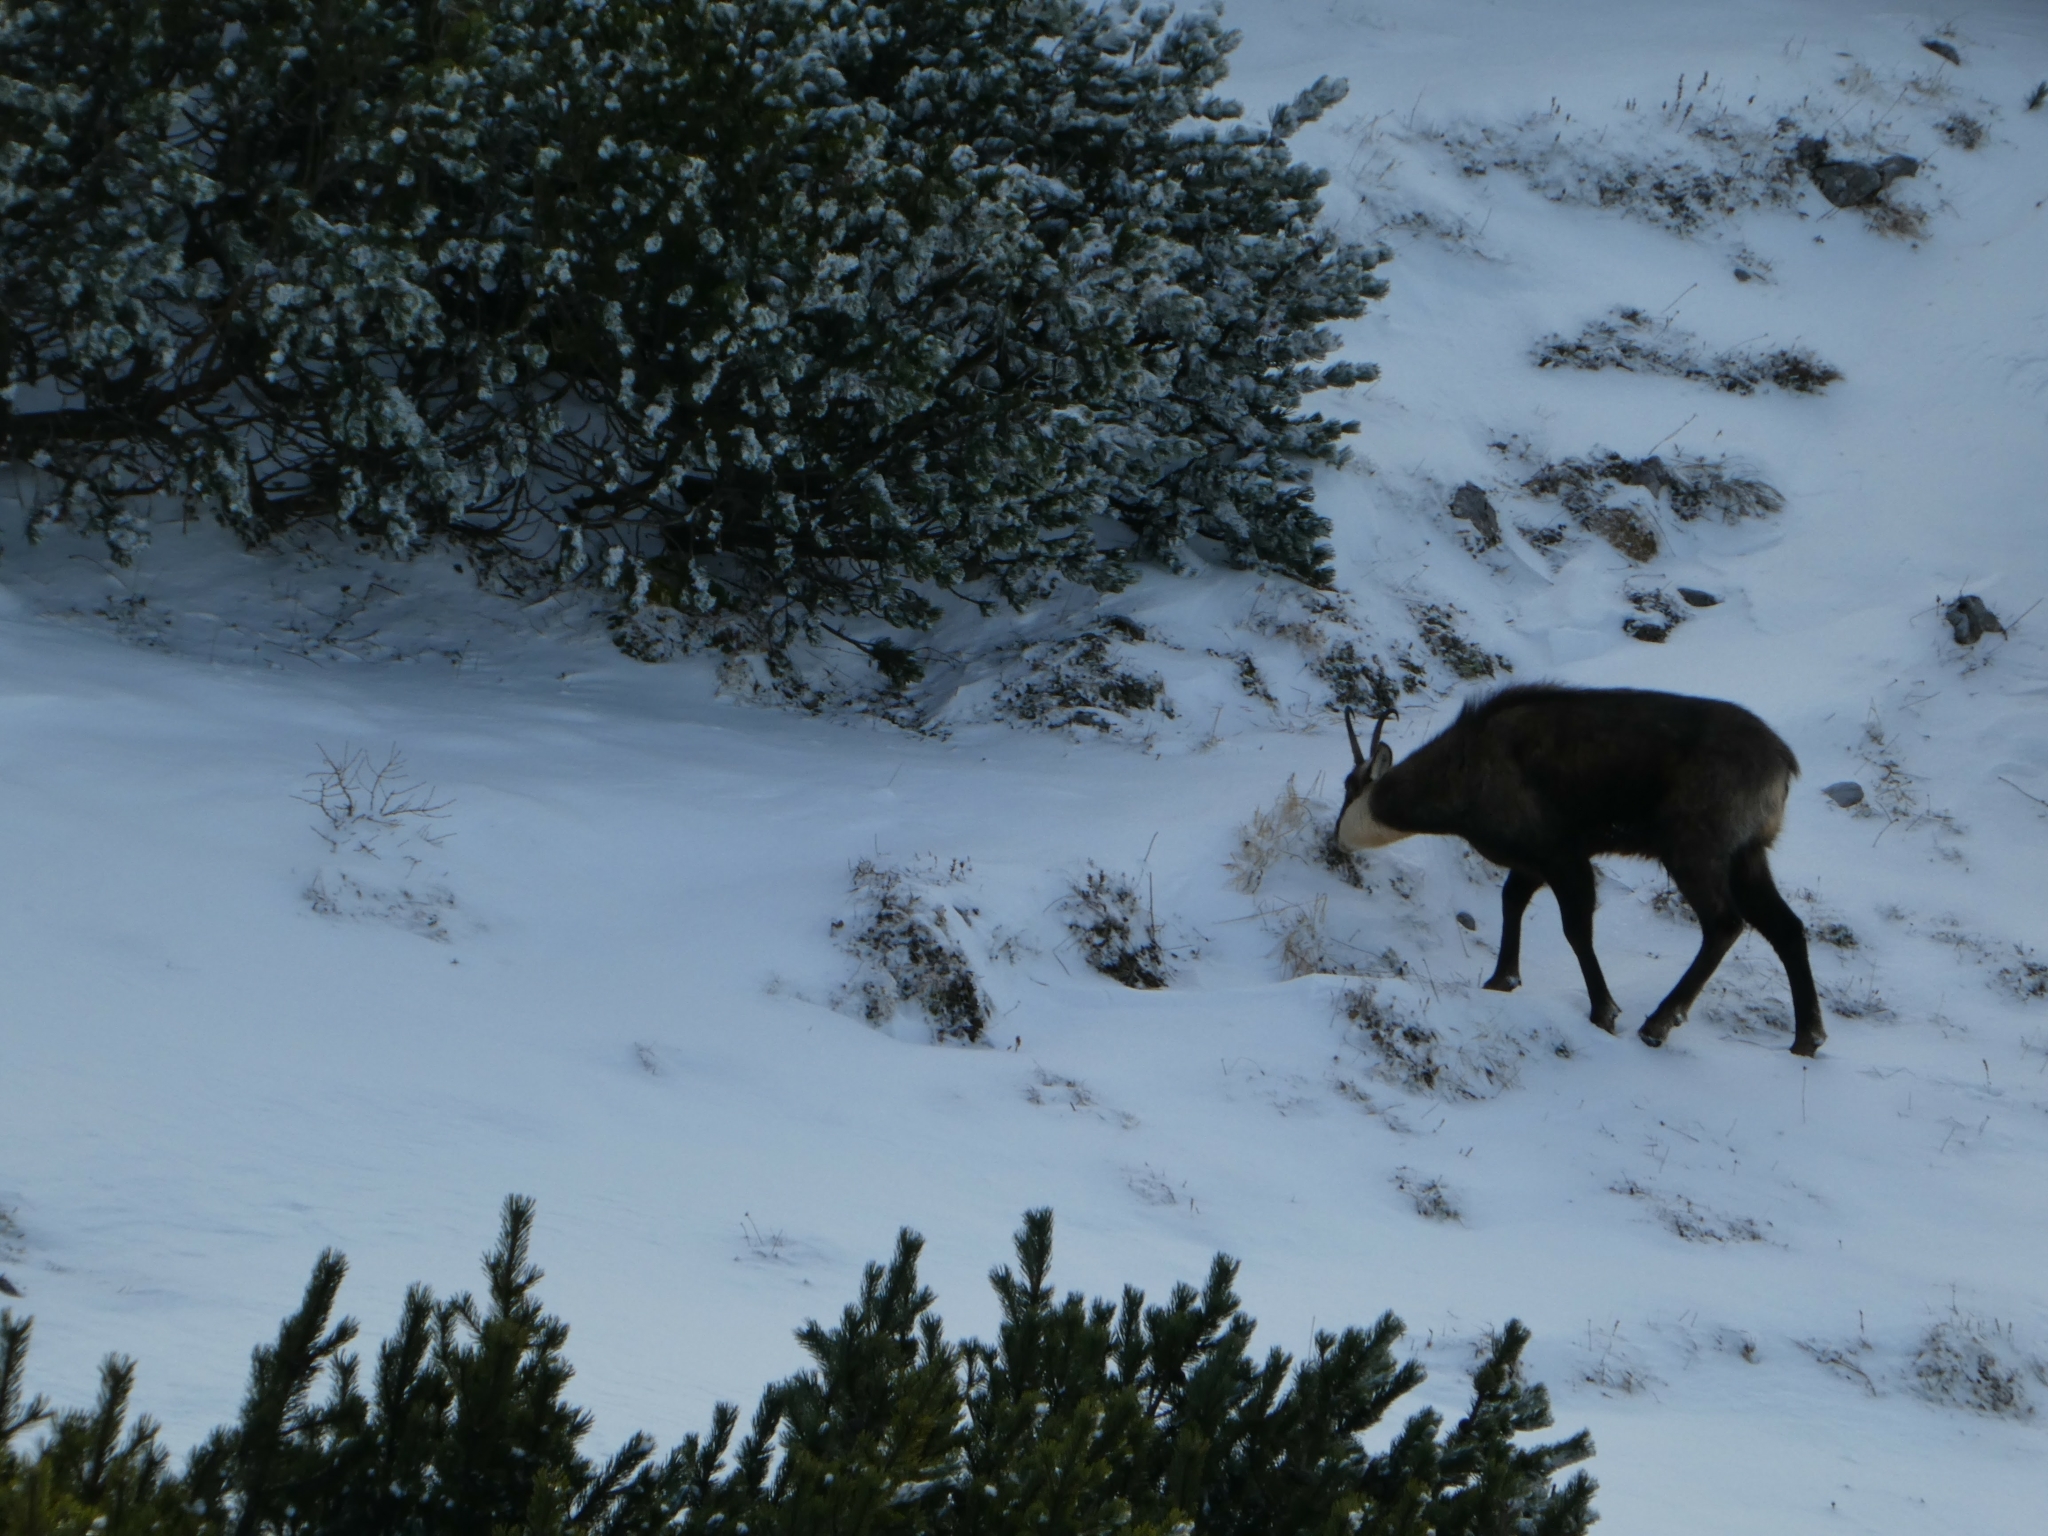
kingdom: Animalia
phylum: Chordata
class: Mammalia
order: Artiodactyla
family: Bovidae
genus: Rupicapra
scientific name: Rupicapra rupicapra
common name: Chamois
